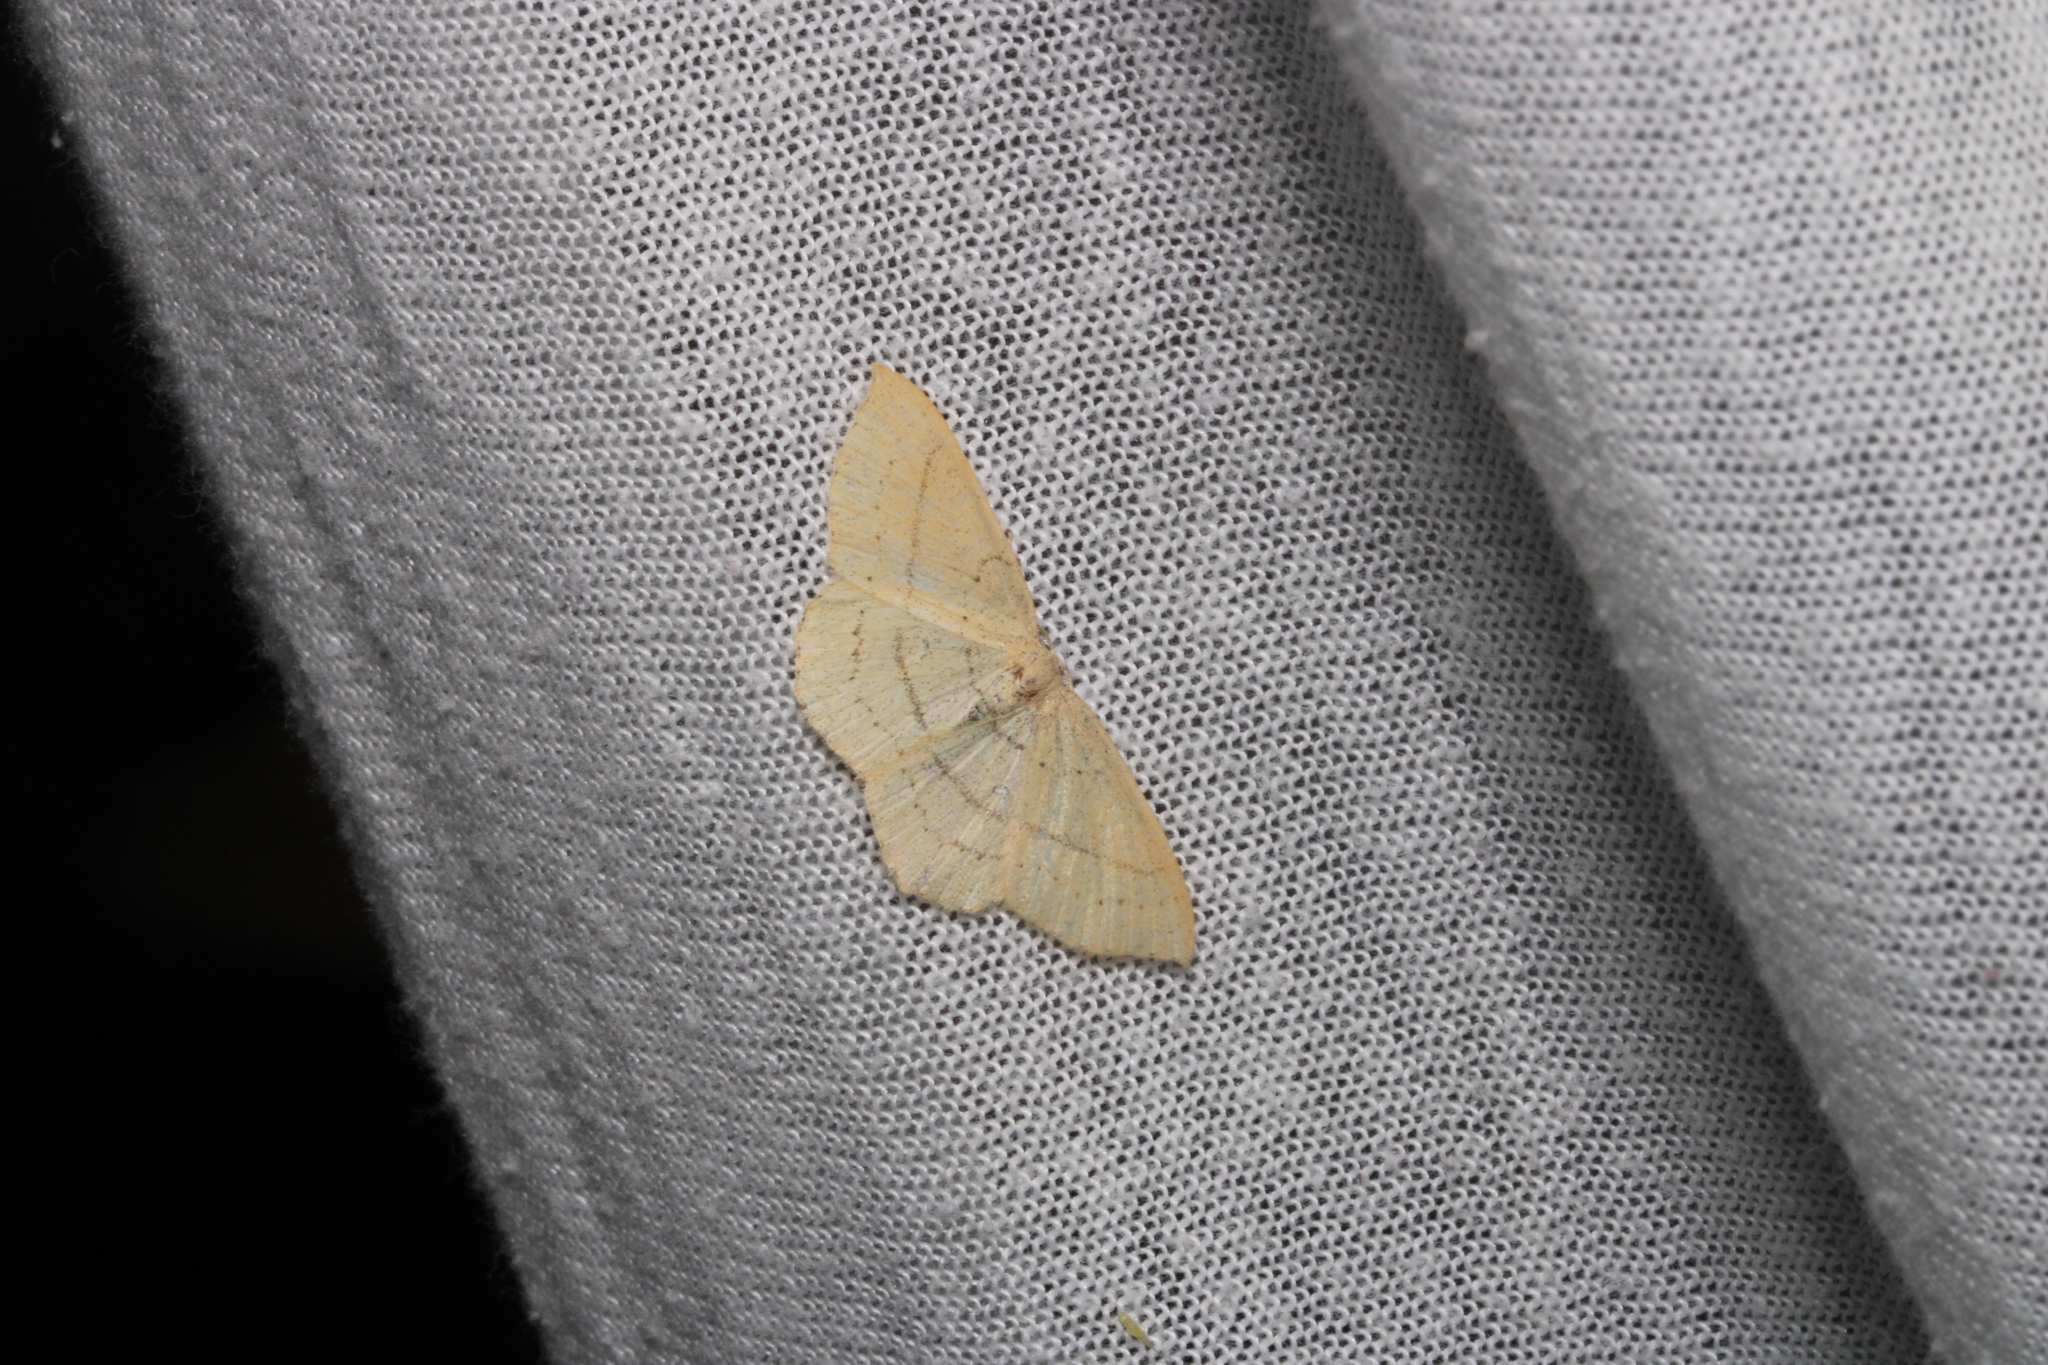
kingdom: Animalia
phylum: Arthropoda
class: Insecta
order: Lepidoptera
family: Geometridae
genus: Cyclophora
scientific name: Cyclophora linearia
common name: Clay triple-lines
